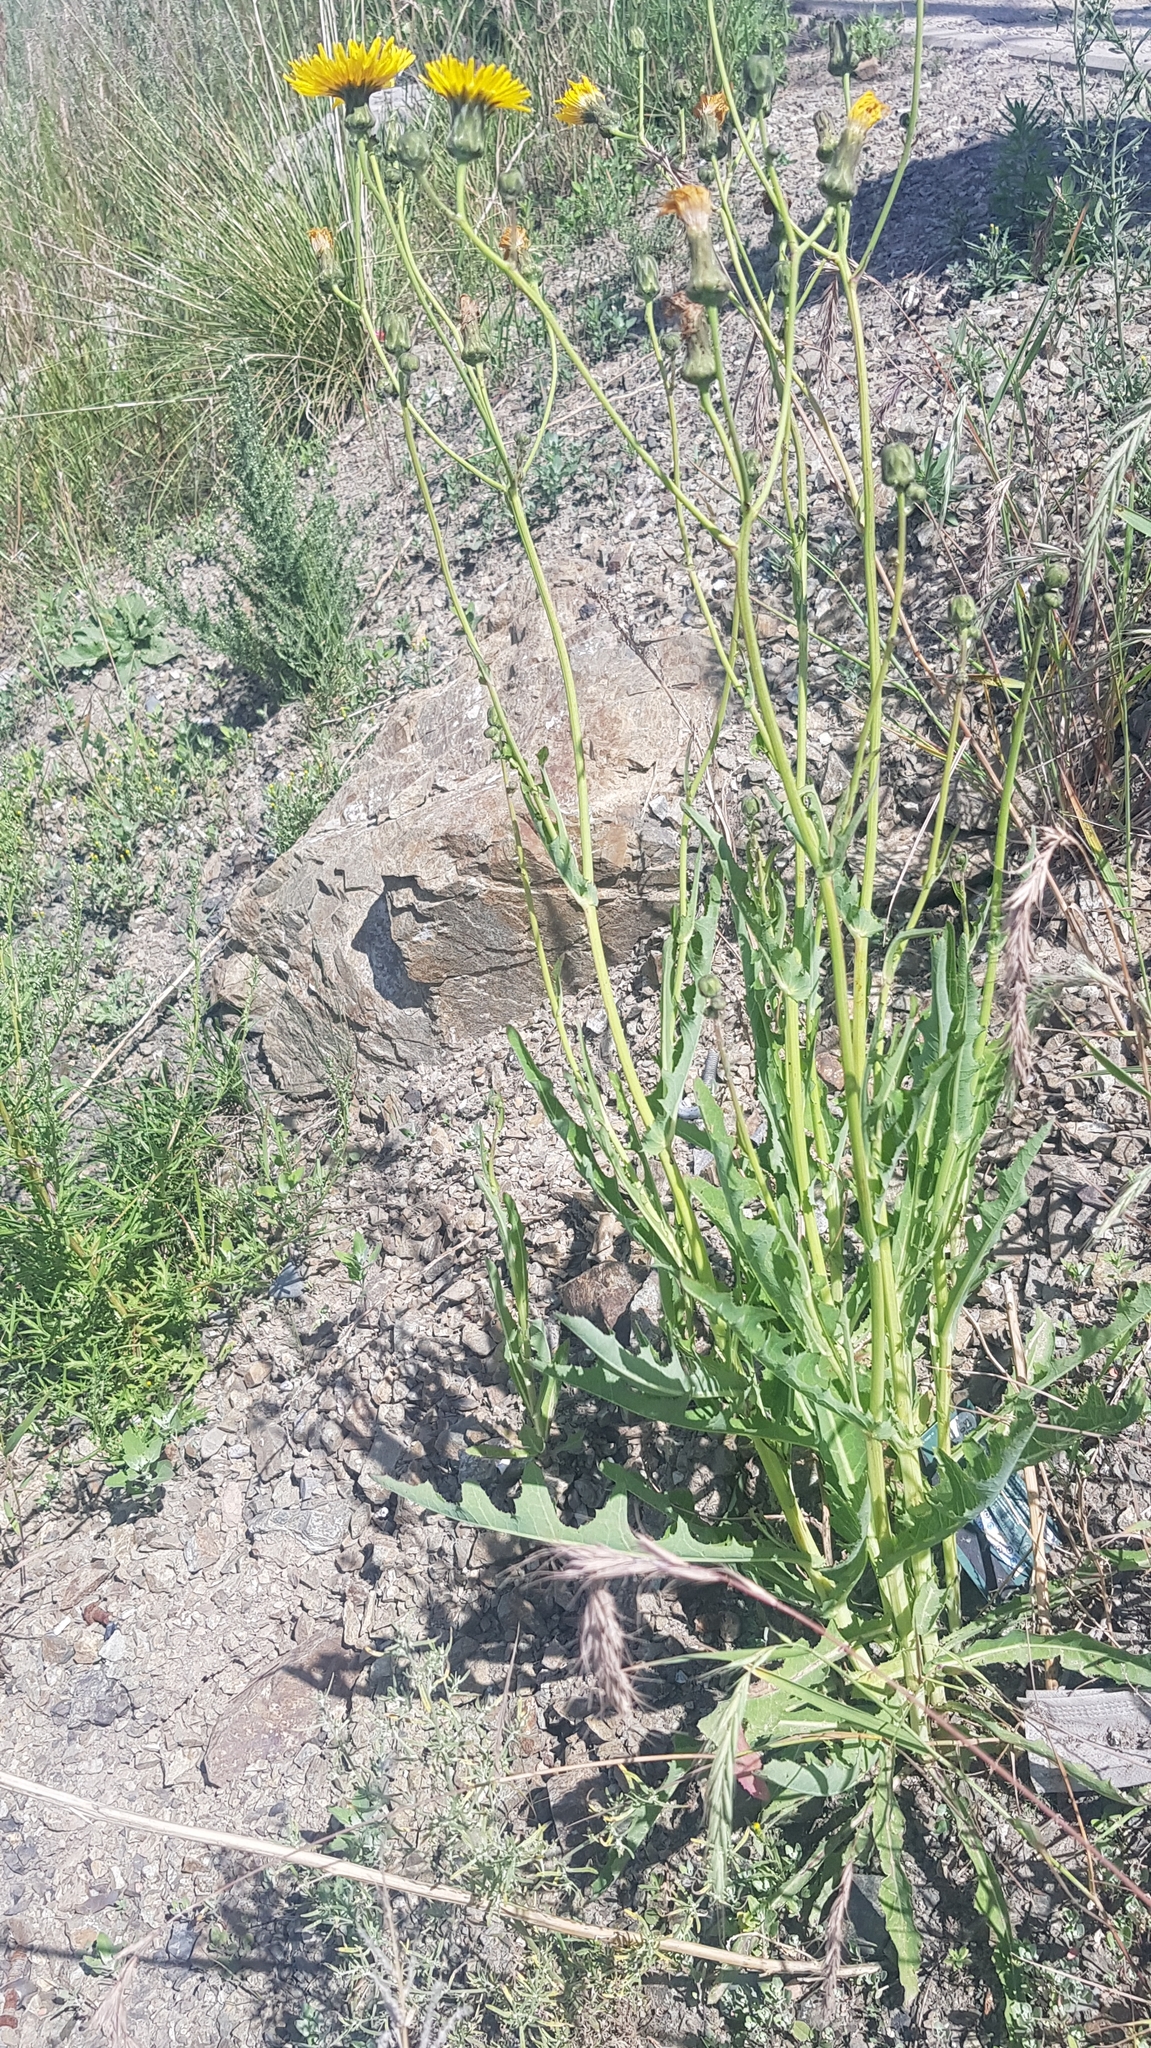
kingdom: Plantae
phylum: Tracheophyta
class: Magnoliopsida
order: Asterales
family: Asteraceae
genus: Sonchus
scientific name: Sonchus oleraceus
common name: Common sowthistle
